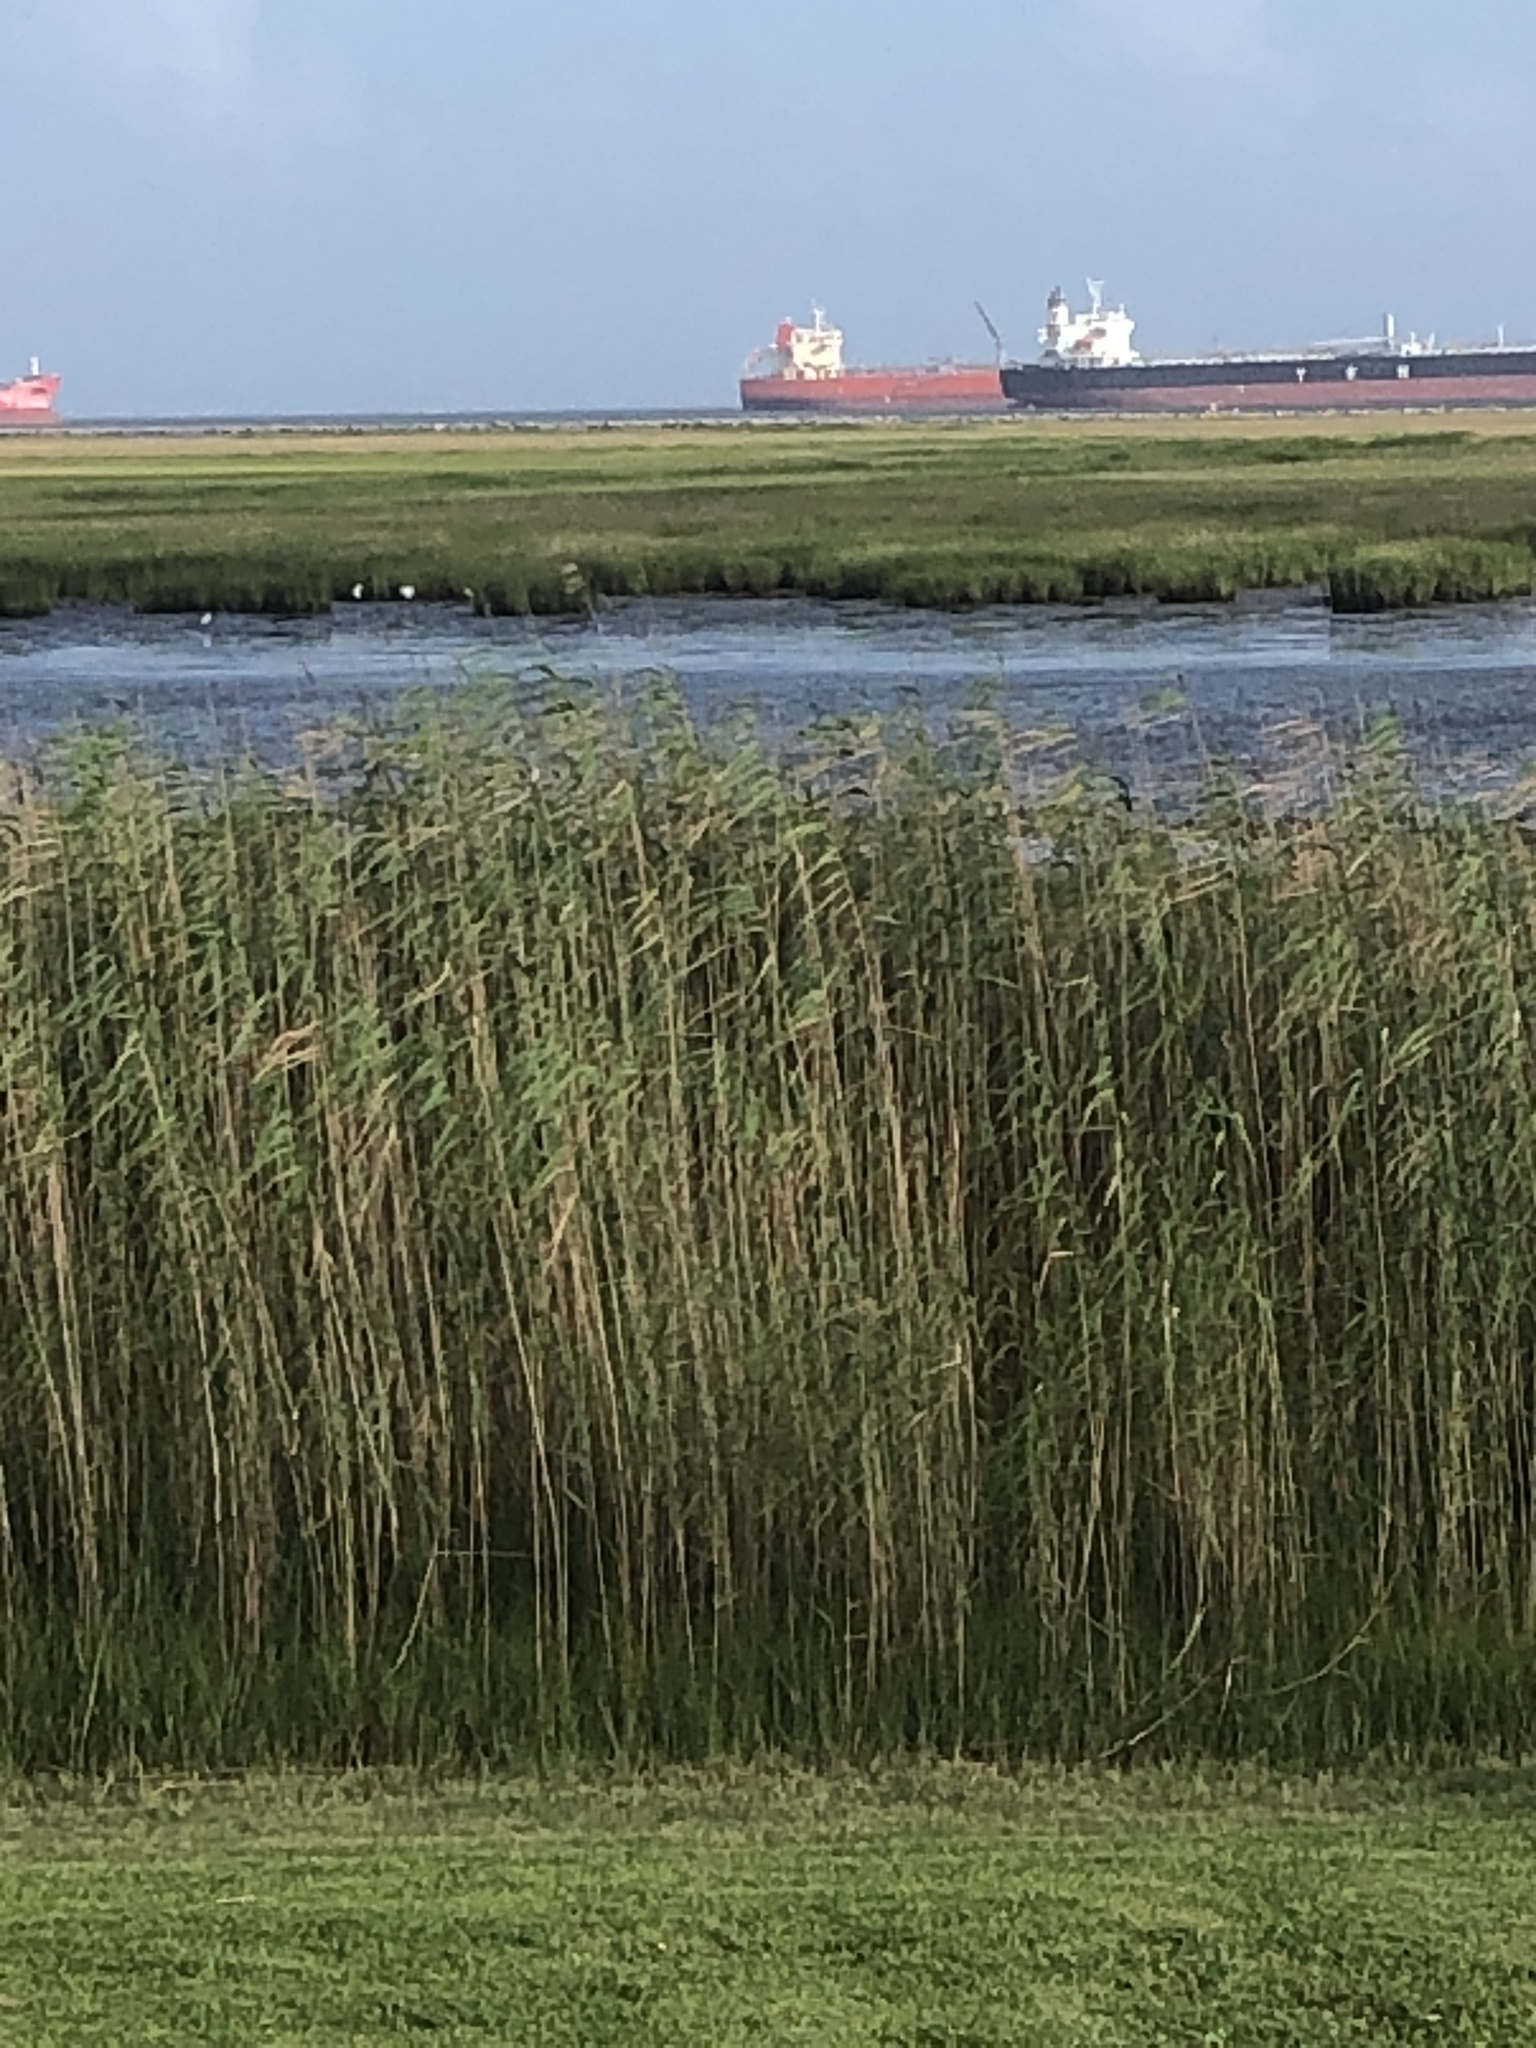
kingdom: Plantae
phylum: Tracheophyta
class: Liliopsida
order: Poales
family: Poaceae
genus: Phragmites
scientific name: Phragmites australis
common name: Common reed
